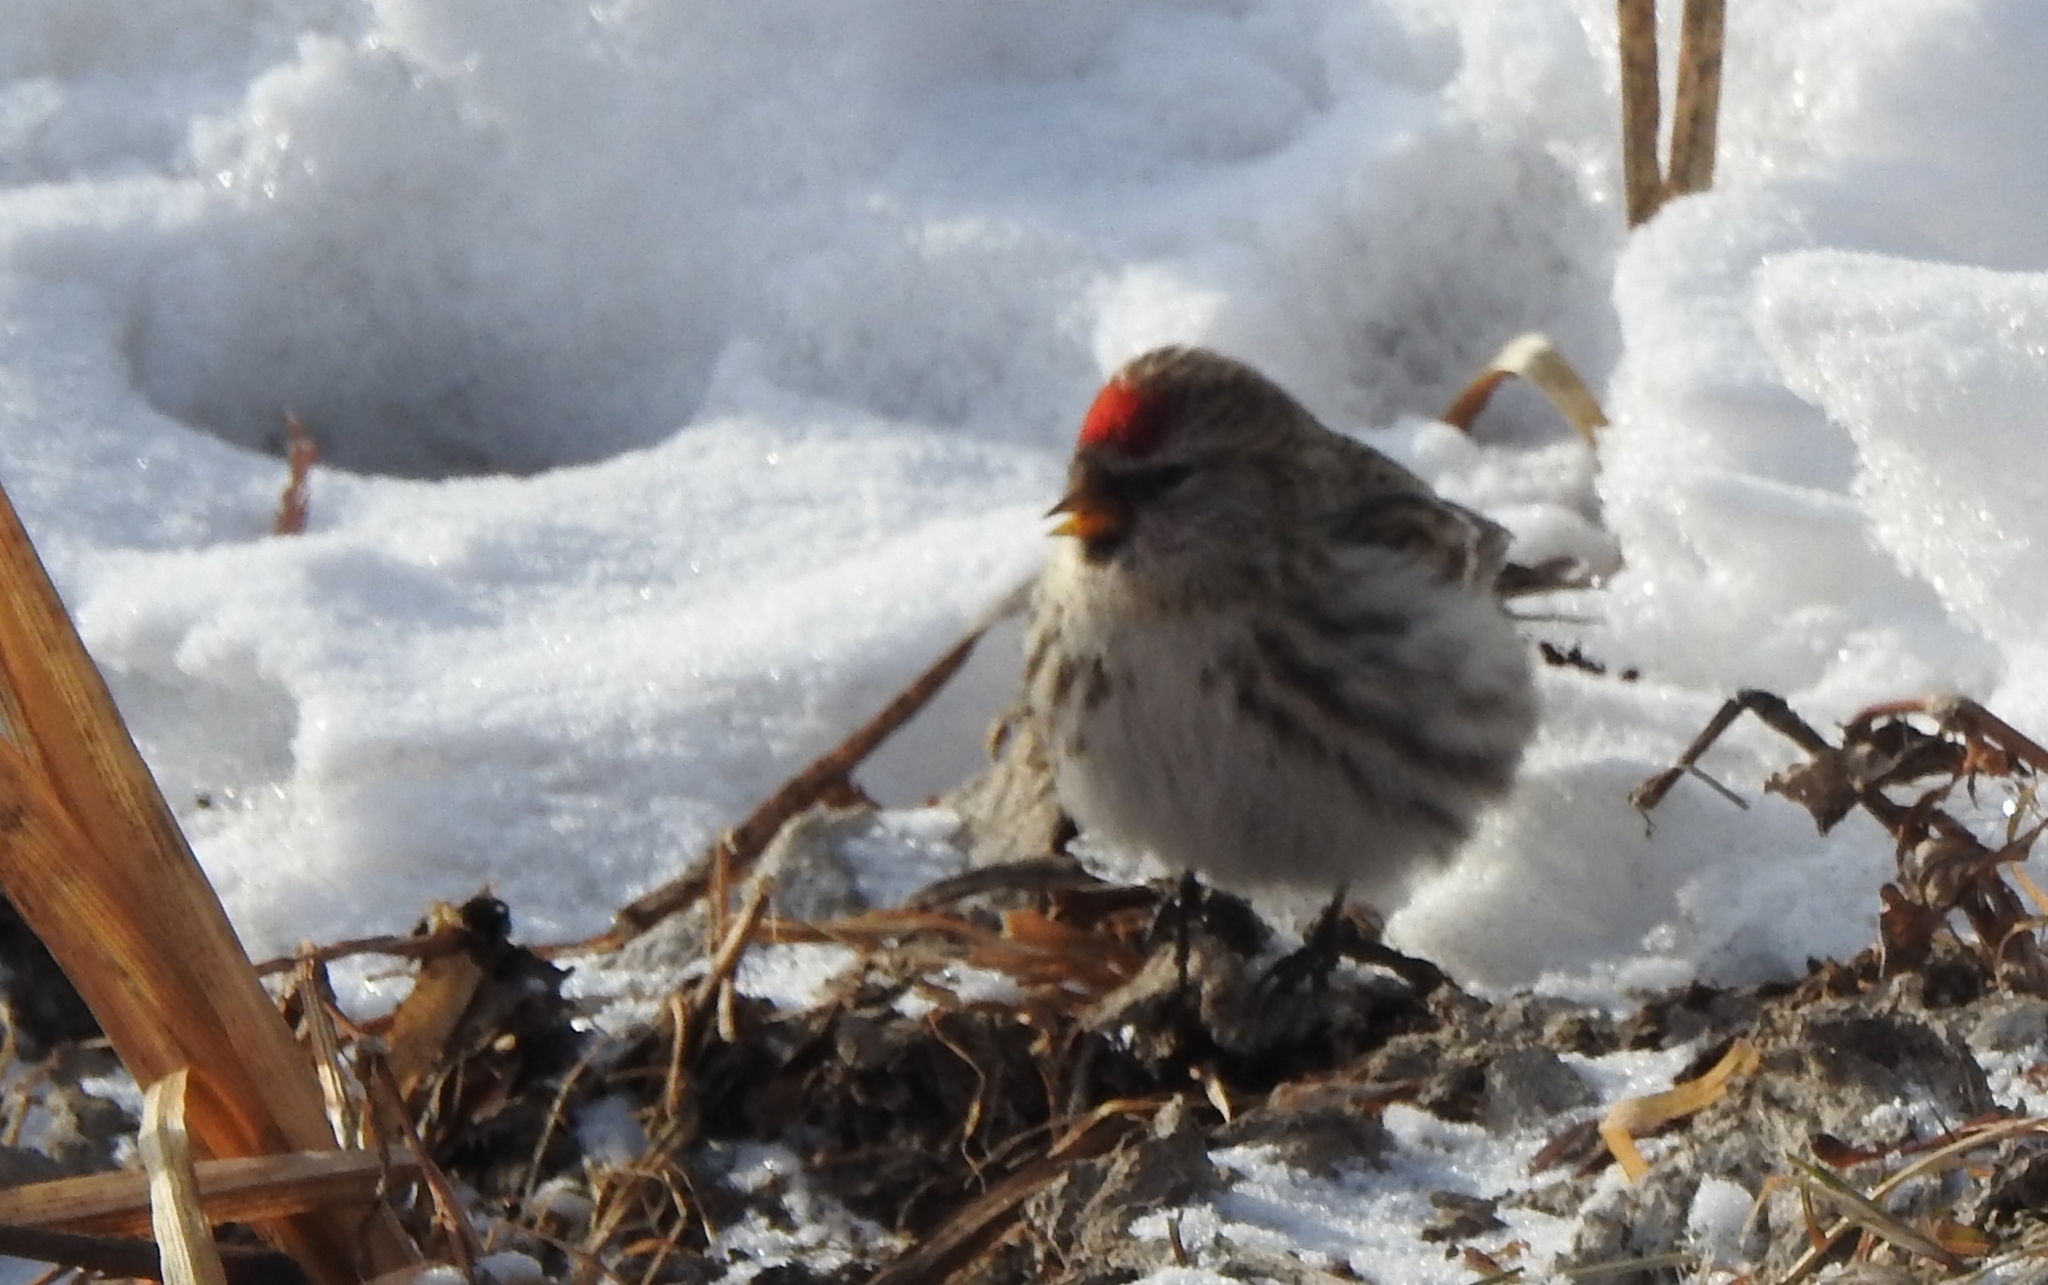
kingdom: Animalia
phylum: Chordata
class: Aves
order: Passeriformes
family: Fringillidae
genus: Acanthis
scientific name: Acanthis flammea
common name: Common redpoll
